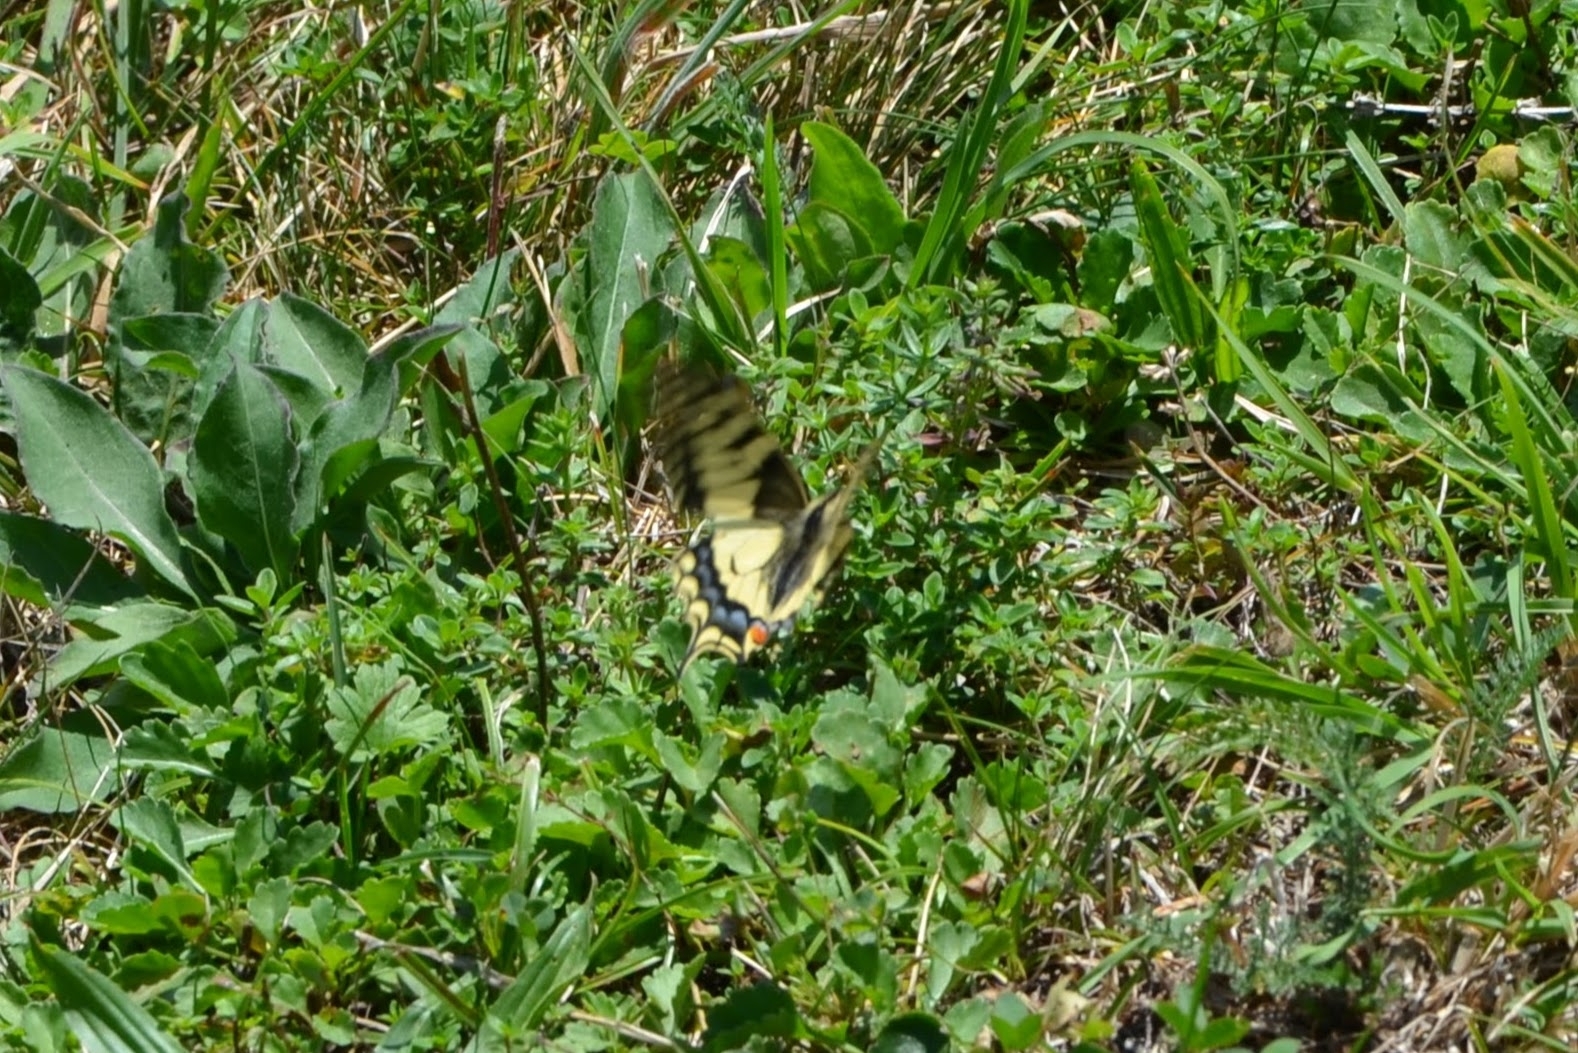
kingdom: Animalia
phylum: Arthropoda
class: Insecta
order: Lepidoptera
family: Papilionidae
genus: Papilio
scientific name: Papilio machaon
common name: Swallowtail
